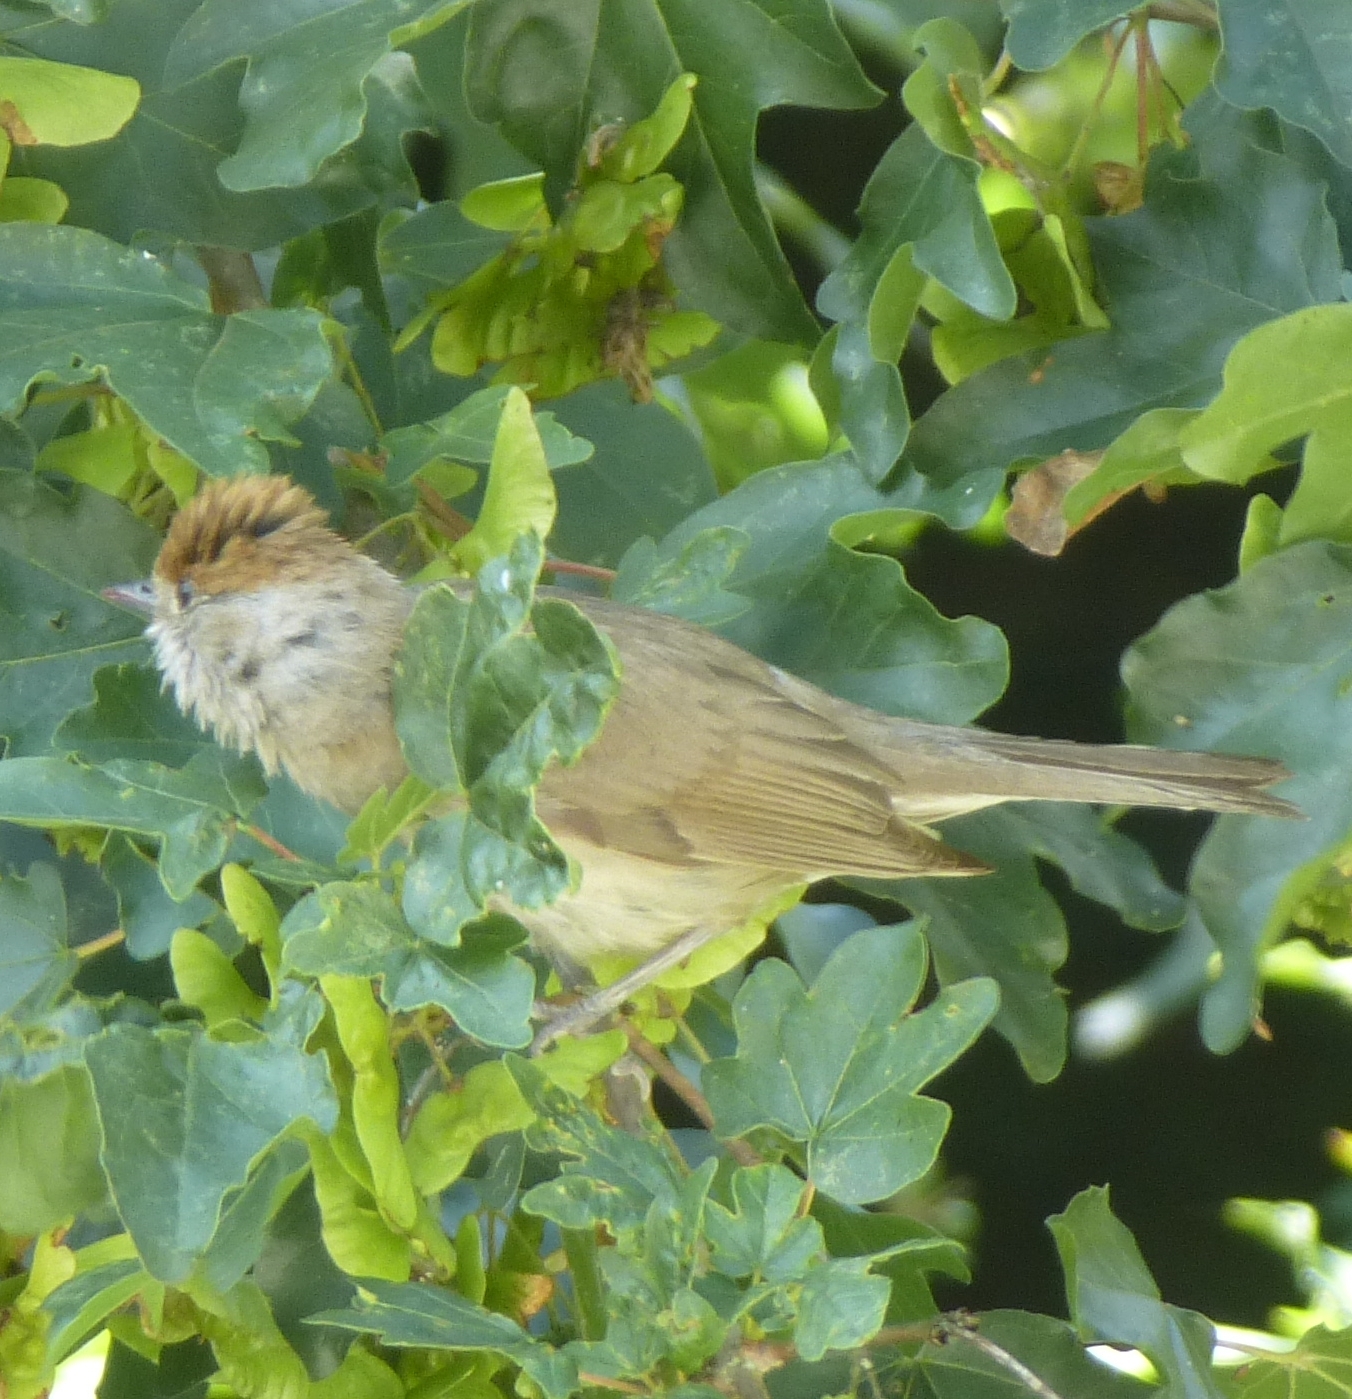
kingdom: Animalia
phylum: Chordata
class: Aves
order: Passeriformes
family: Sylviidae
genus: Sylvia
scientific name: Sylvia atricapilla
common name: Eurasian blackcap
